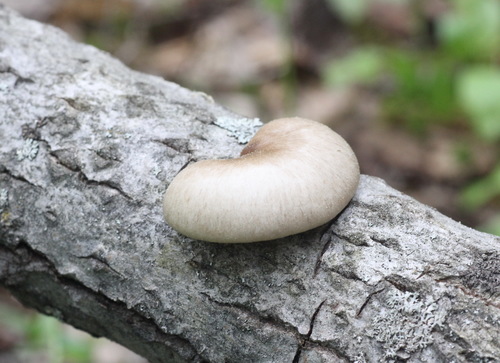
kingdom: Fungi
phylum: Basidiomycota
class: Agaricomycetes
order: Agaricales
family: Pleurotaceae
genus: Pleurotus
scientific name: Pleurotus calyptratus
